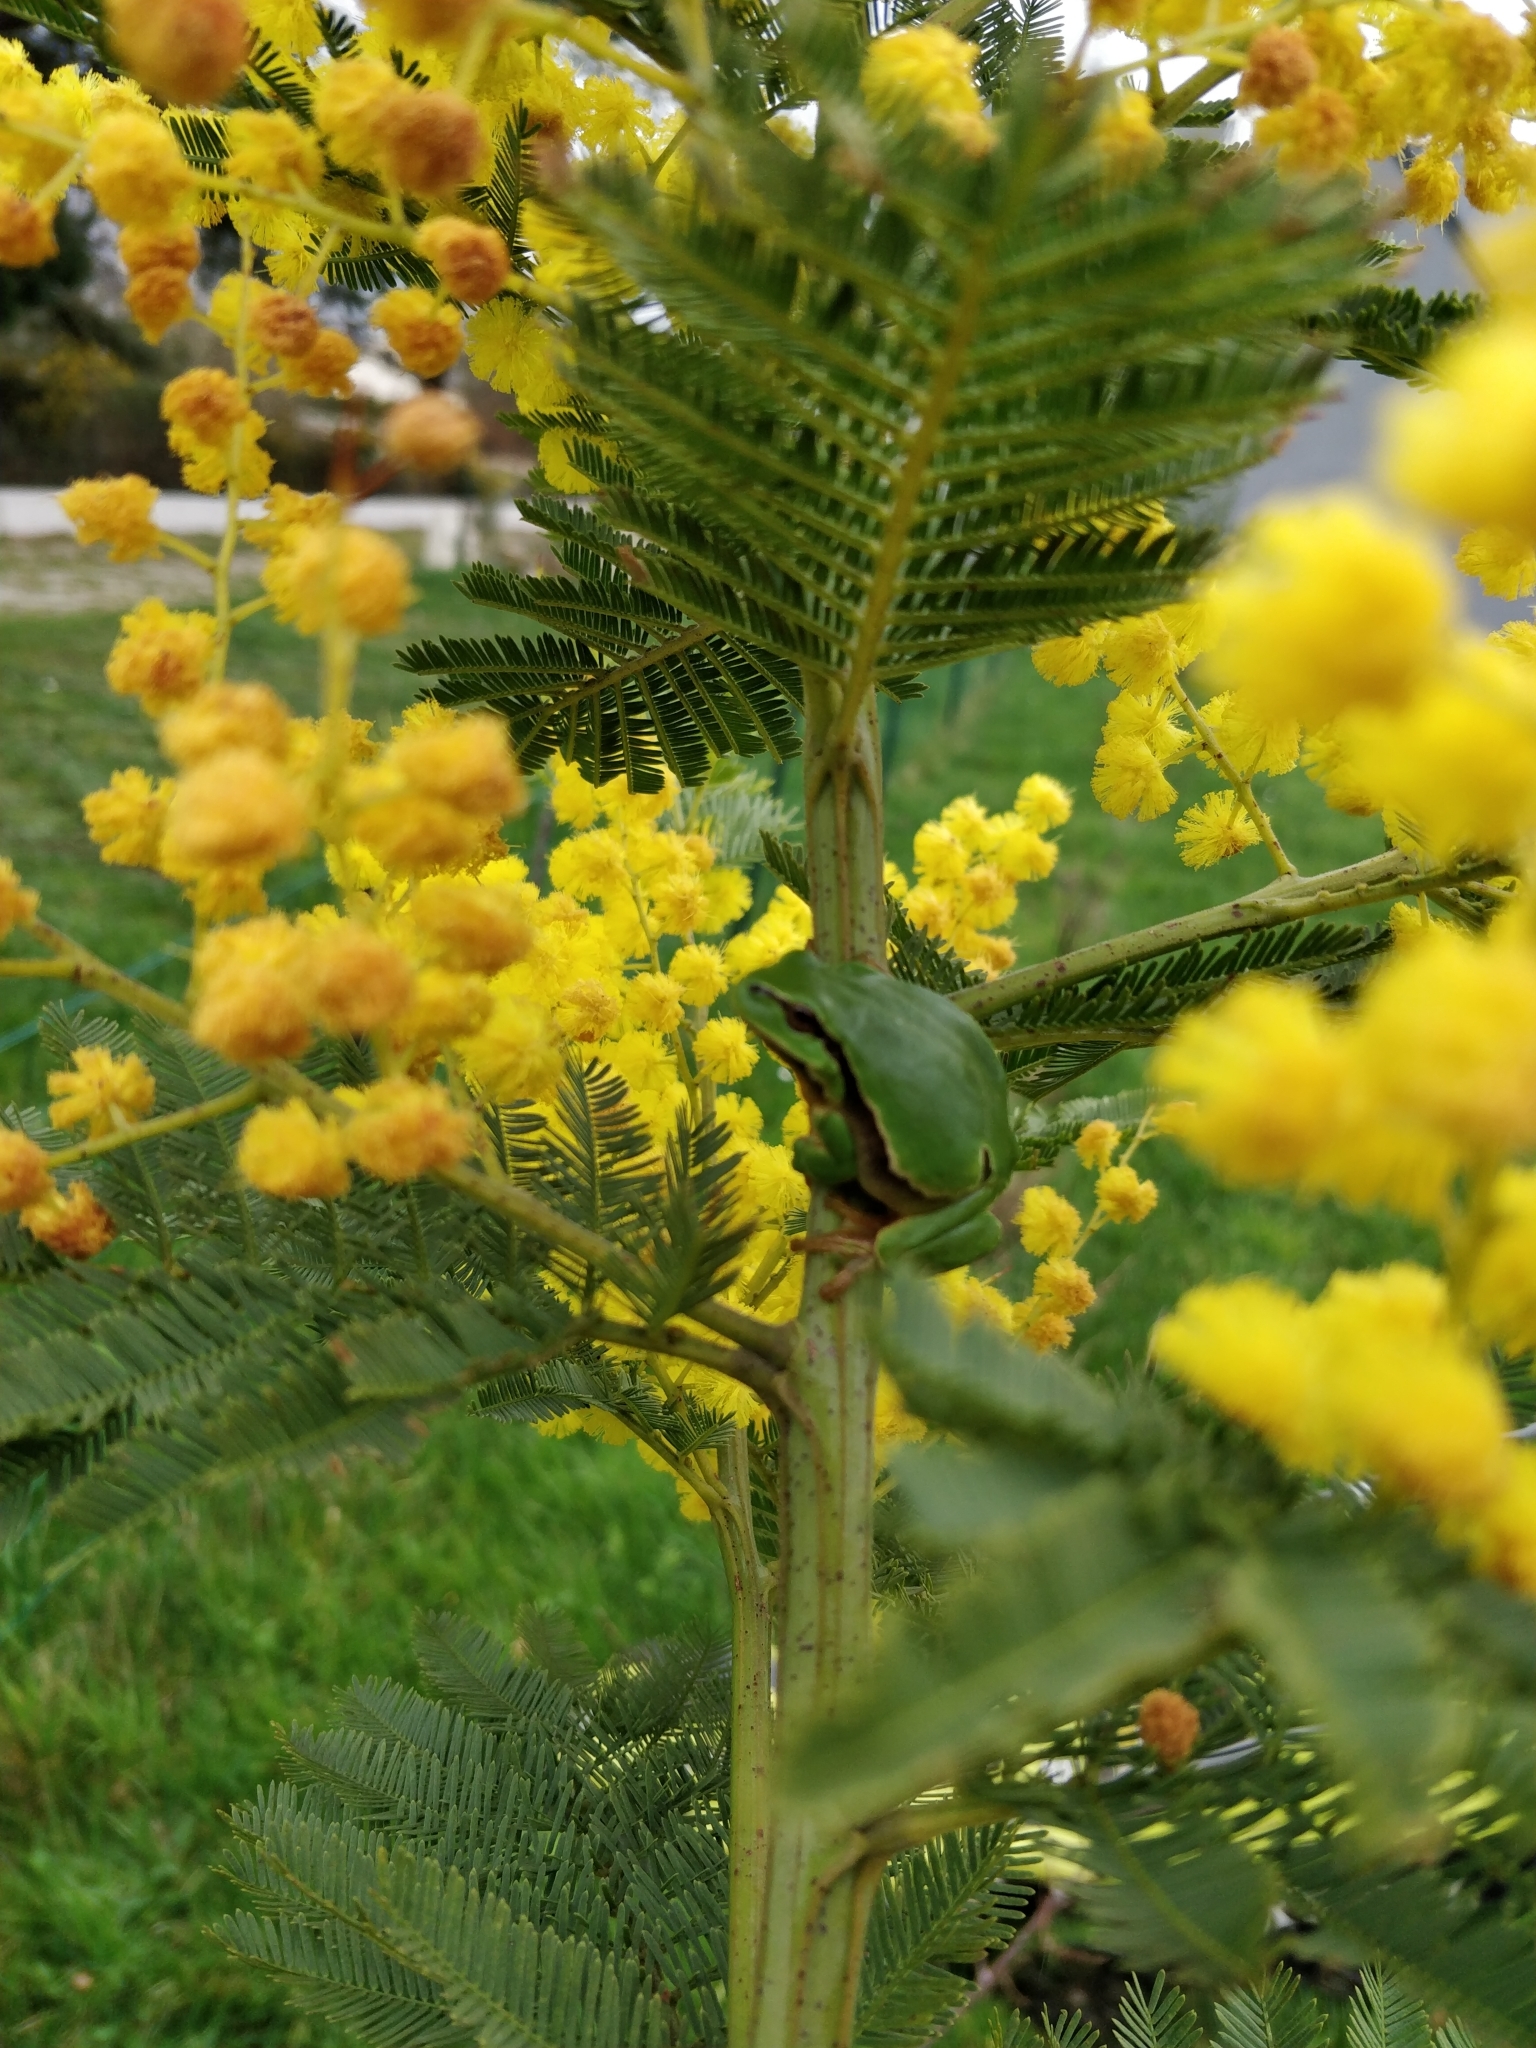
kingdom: Animalia
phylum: Chordata
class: Amphibia
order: Anura
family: Hylidae
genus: Hyla
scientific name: Hyla arborea
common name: Common tree frog
